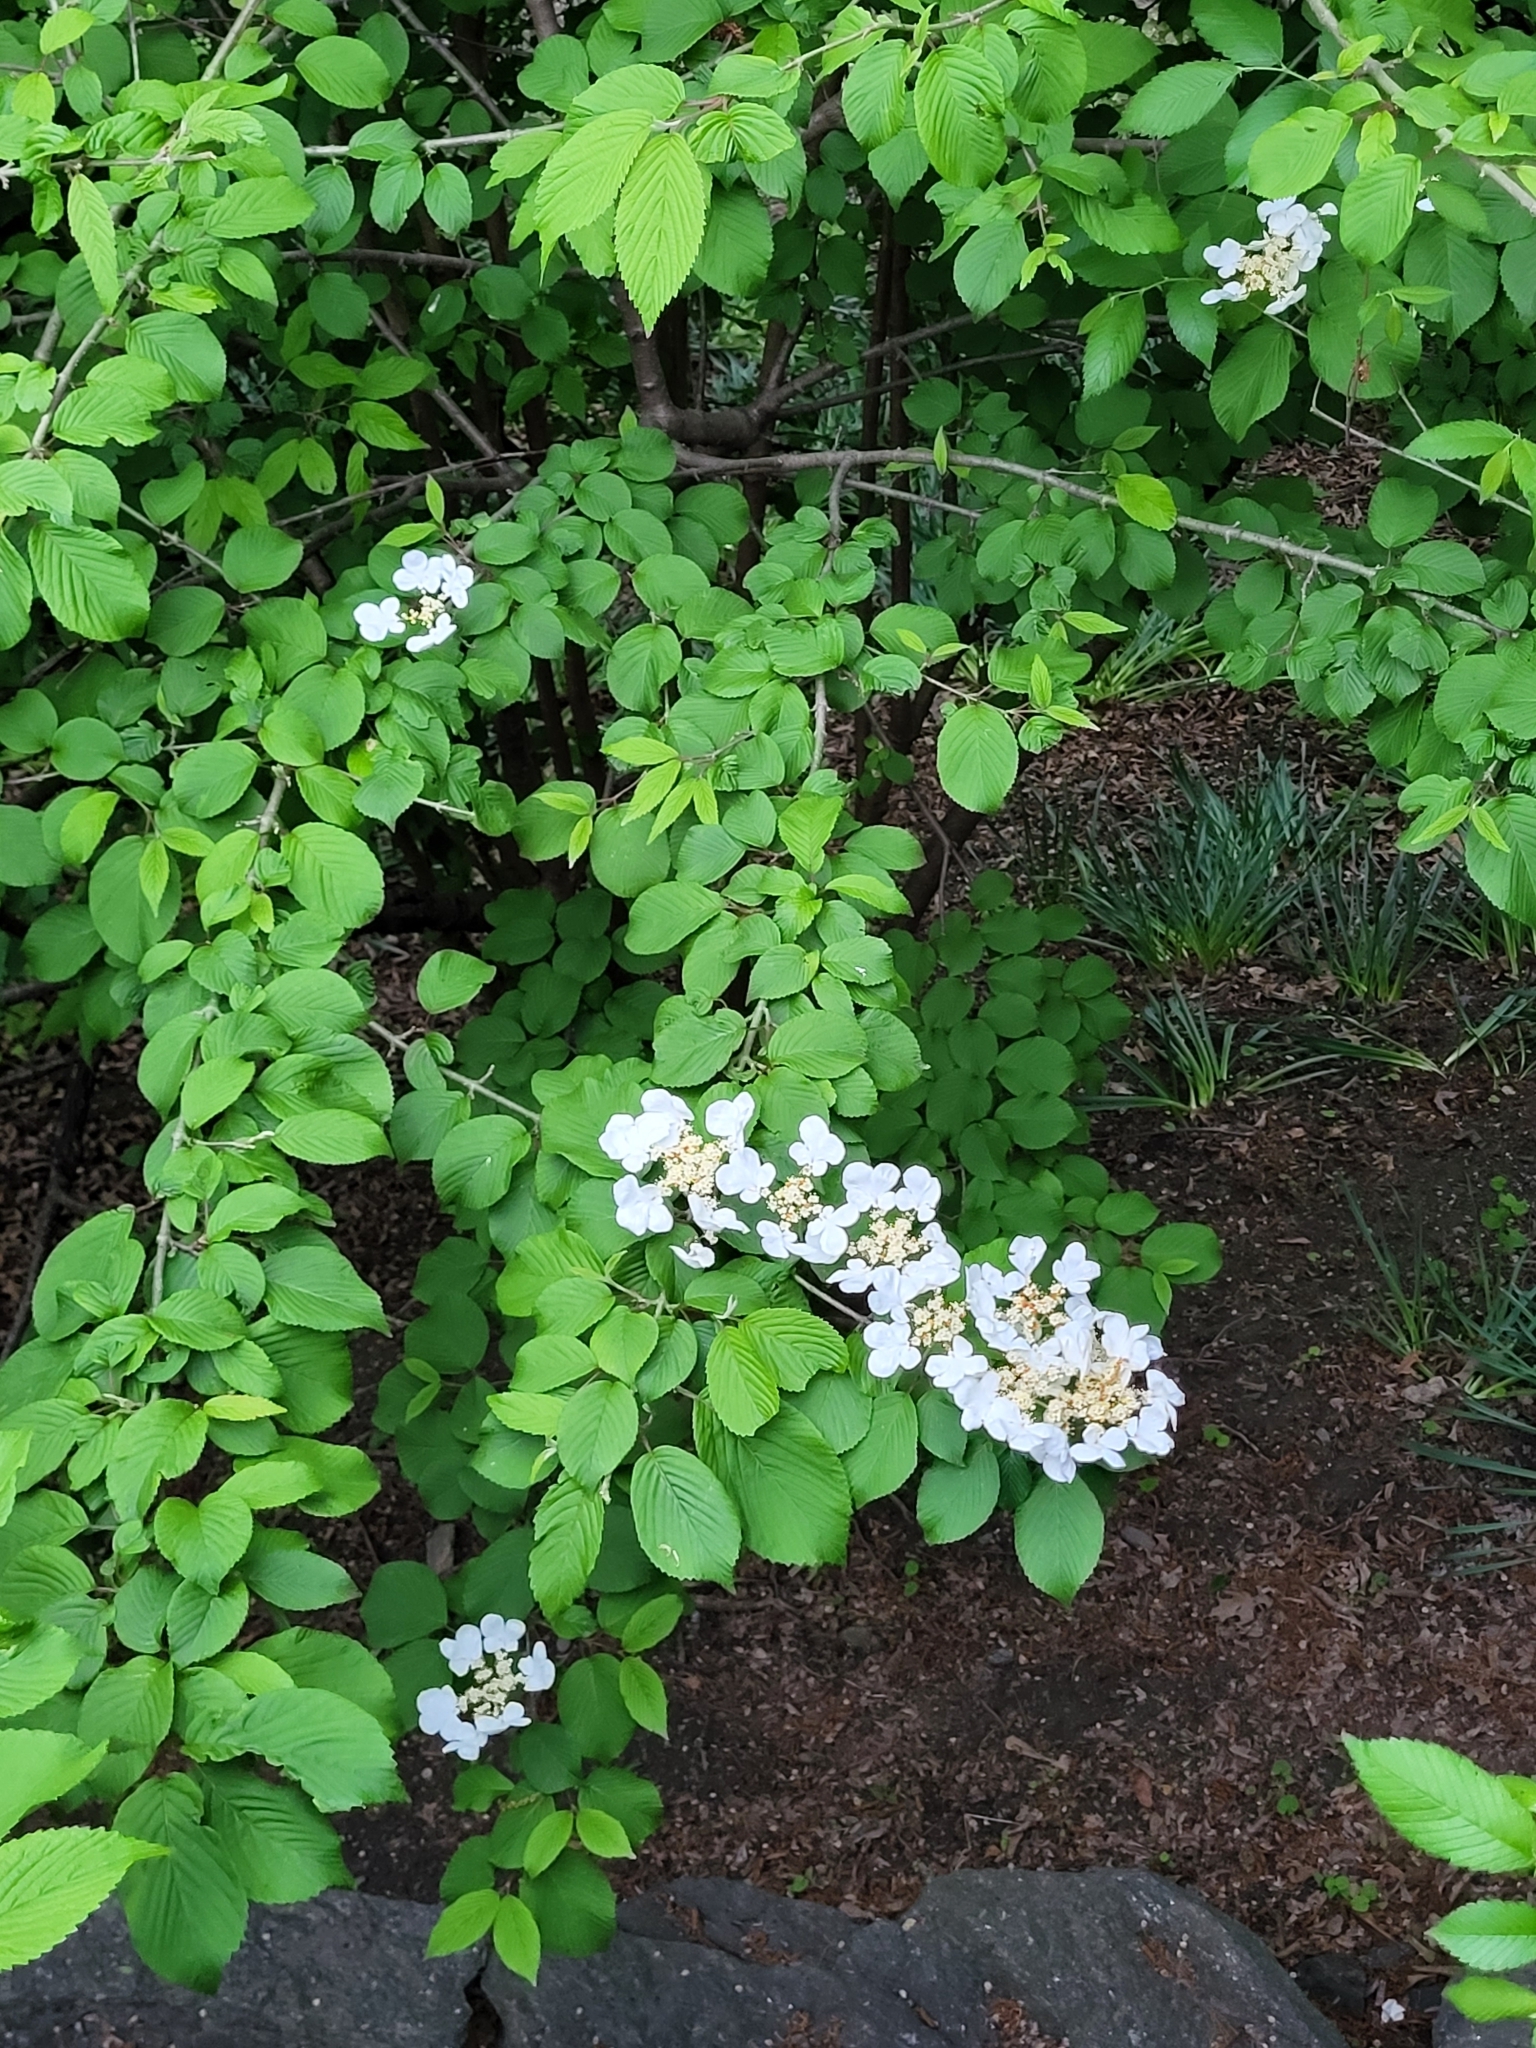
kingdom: Plantae
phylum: Tracheophyta
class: Magnoliopsida
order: Dipsacales
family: Viburnaceae
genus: Viburnum
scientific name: Viburnum plicatum
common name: Japanese snowball
